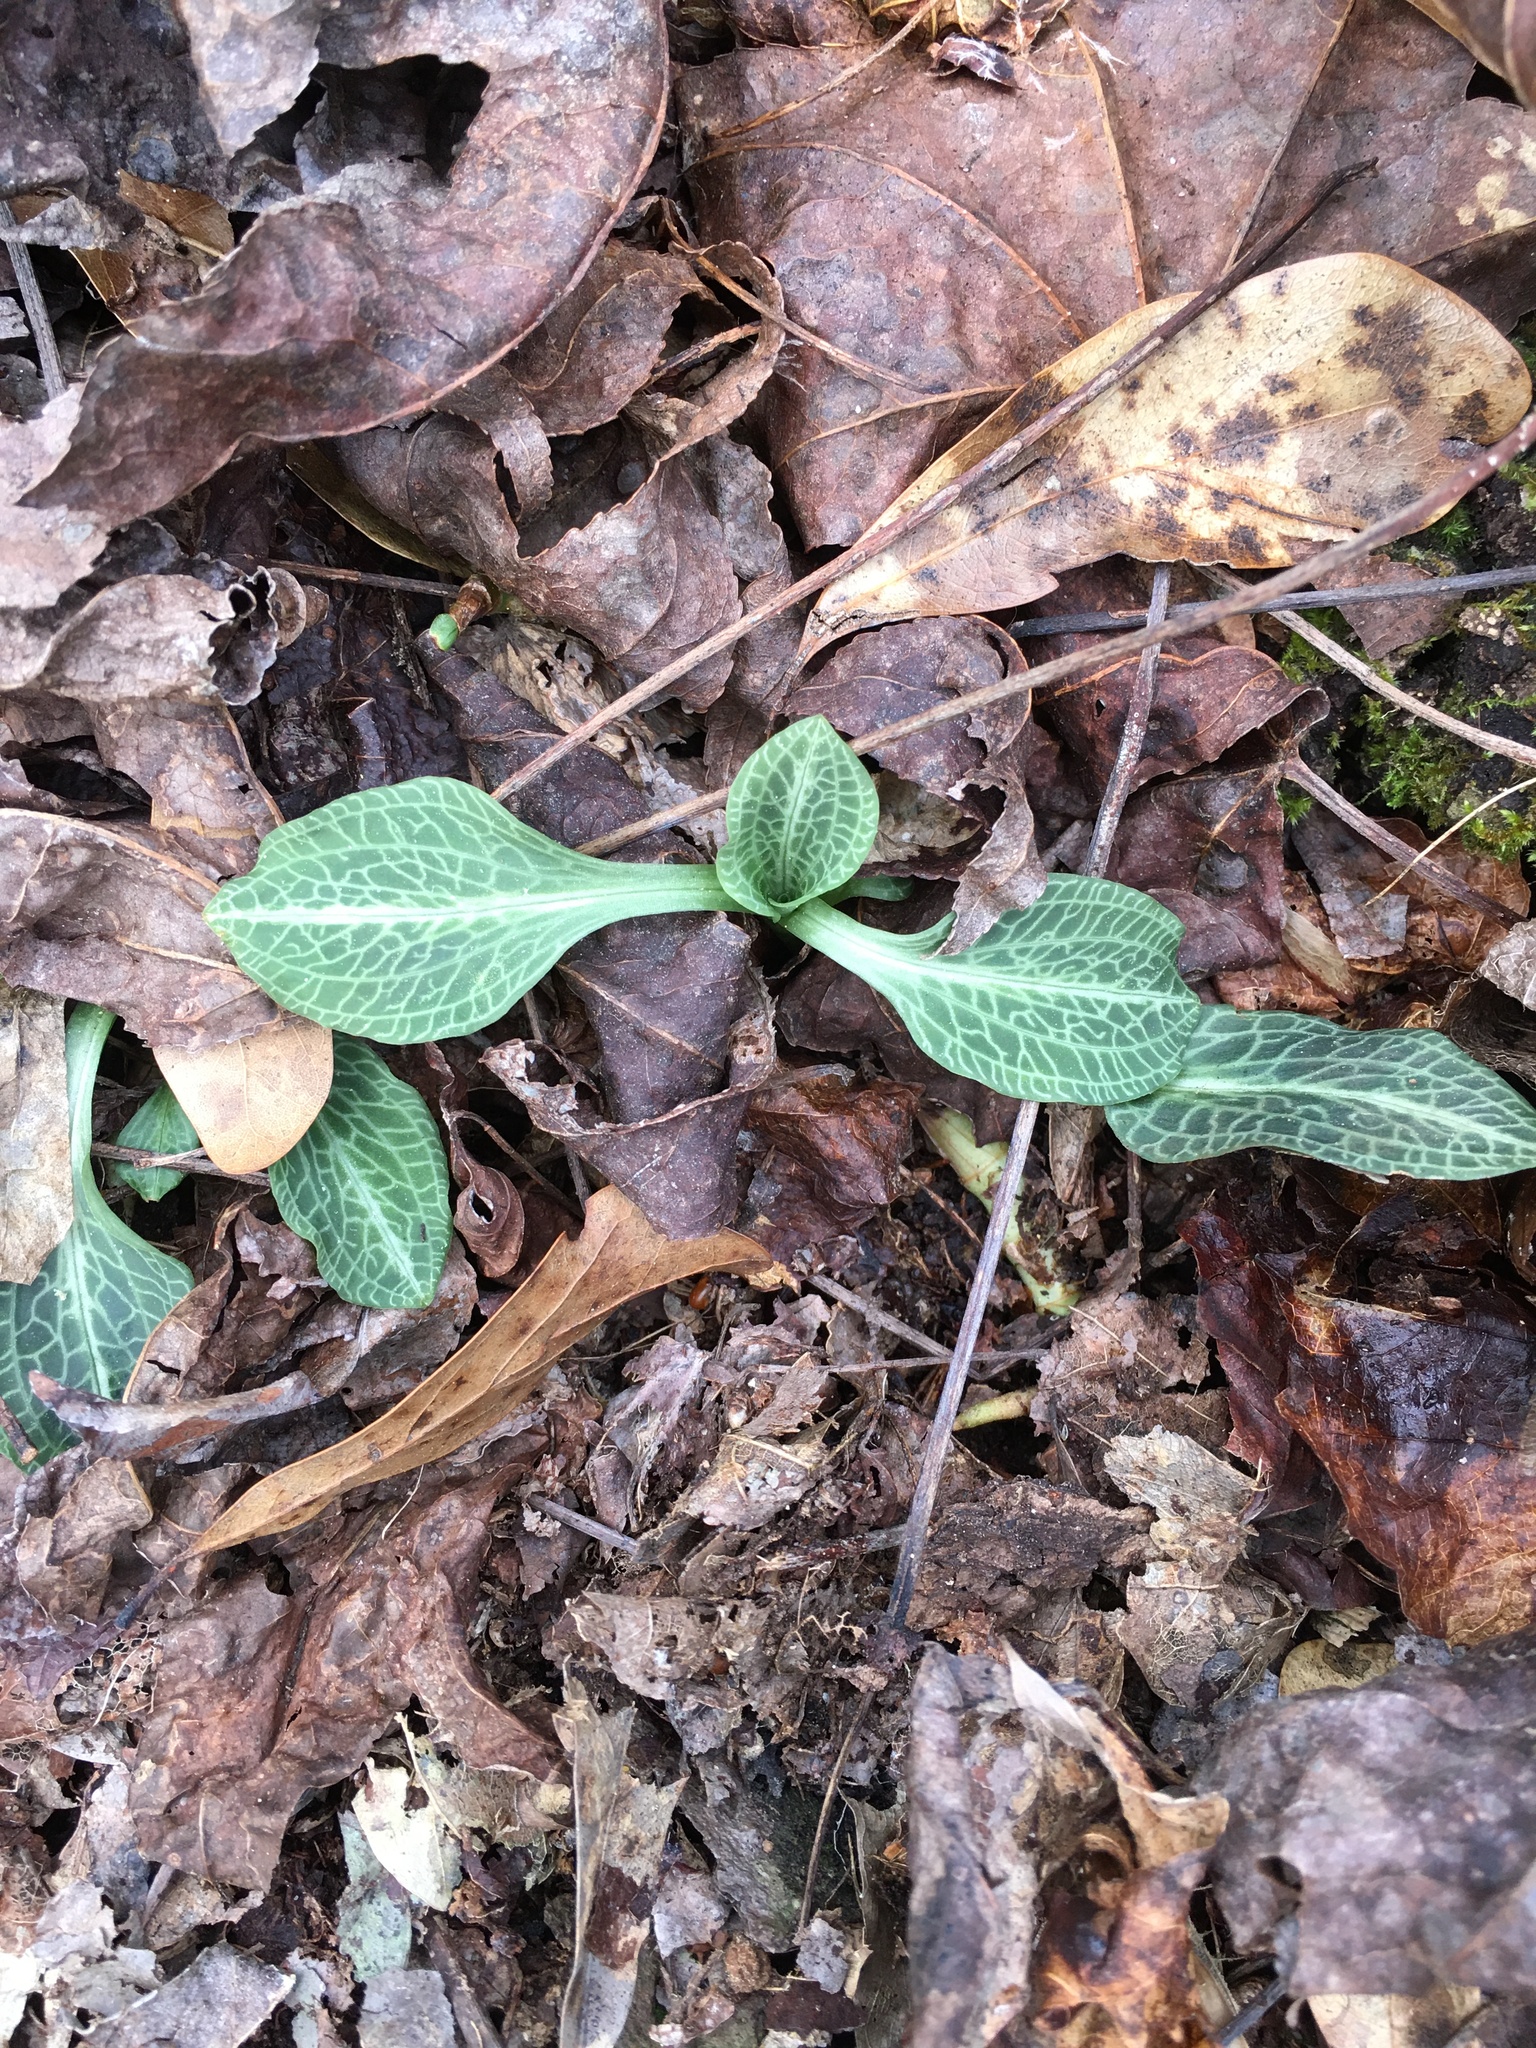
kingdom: Plantae
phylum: Tracheophyta
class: Liliopsida
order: Asparagales
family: Orchidaceae
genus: Goodyera
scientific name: Goodyera pubescens
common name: Downy rattlesnake-plantain
